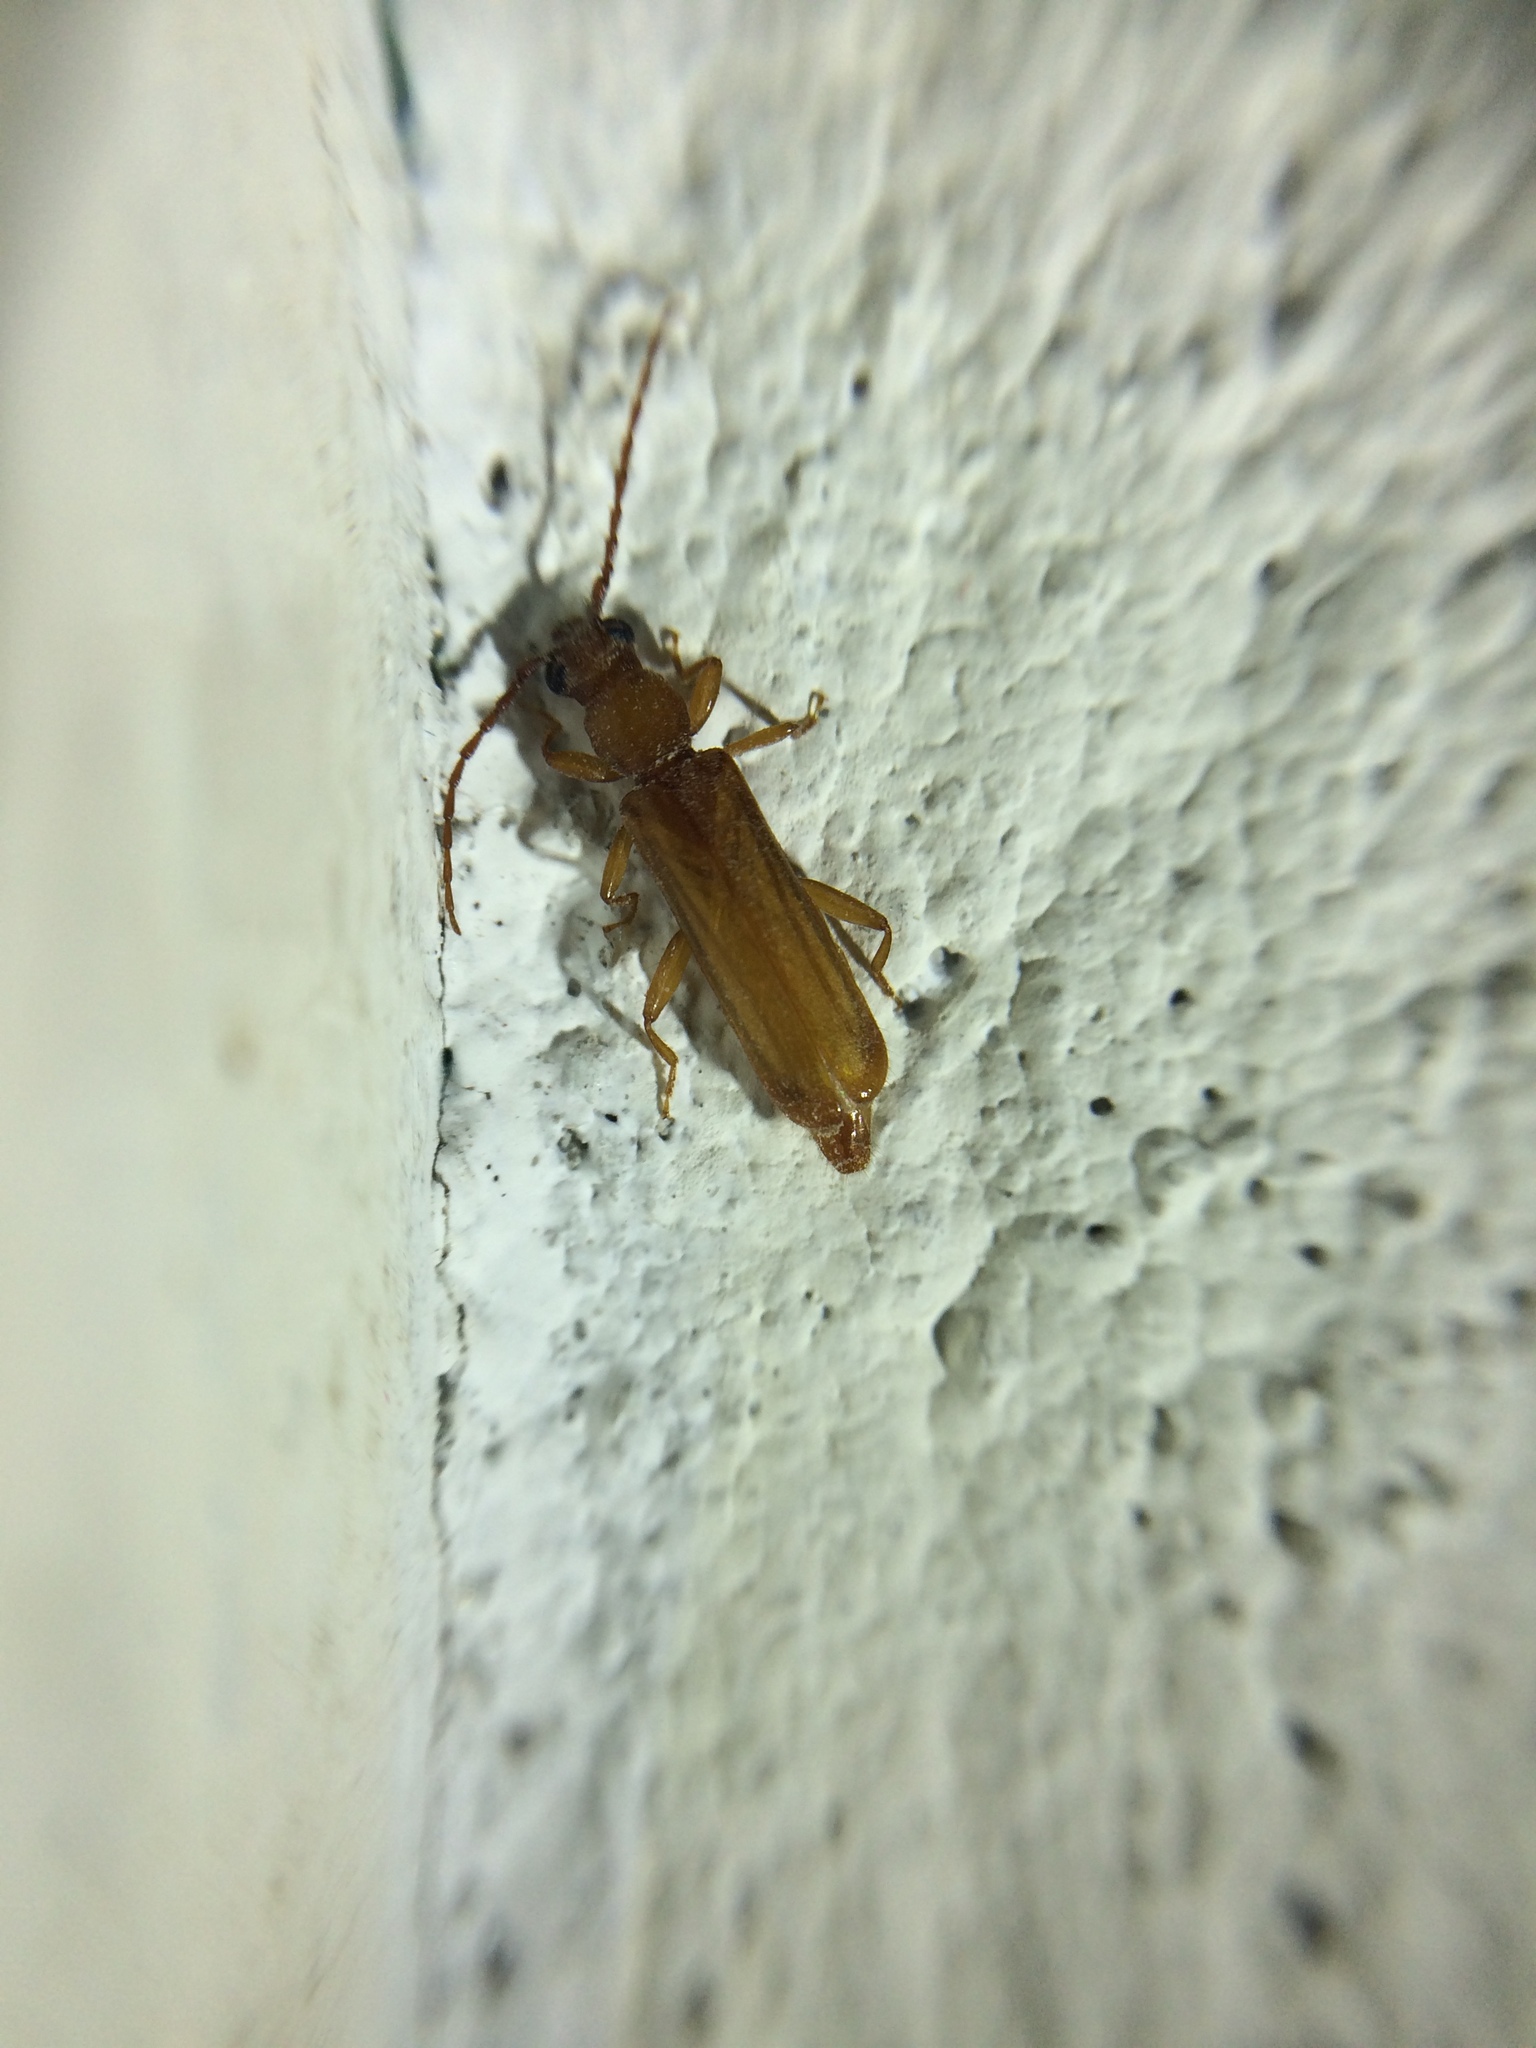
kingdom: Animalia
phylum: Arthropoda
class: Insecta
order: Coleoptera
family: Cerambycidae
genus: Smodicum
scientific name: Smodicum parandroides
